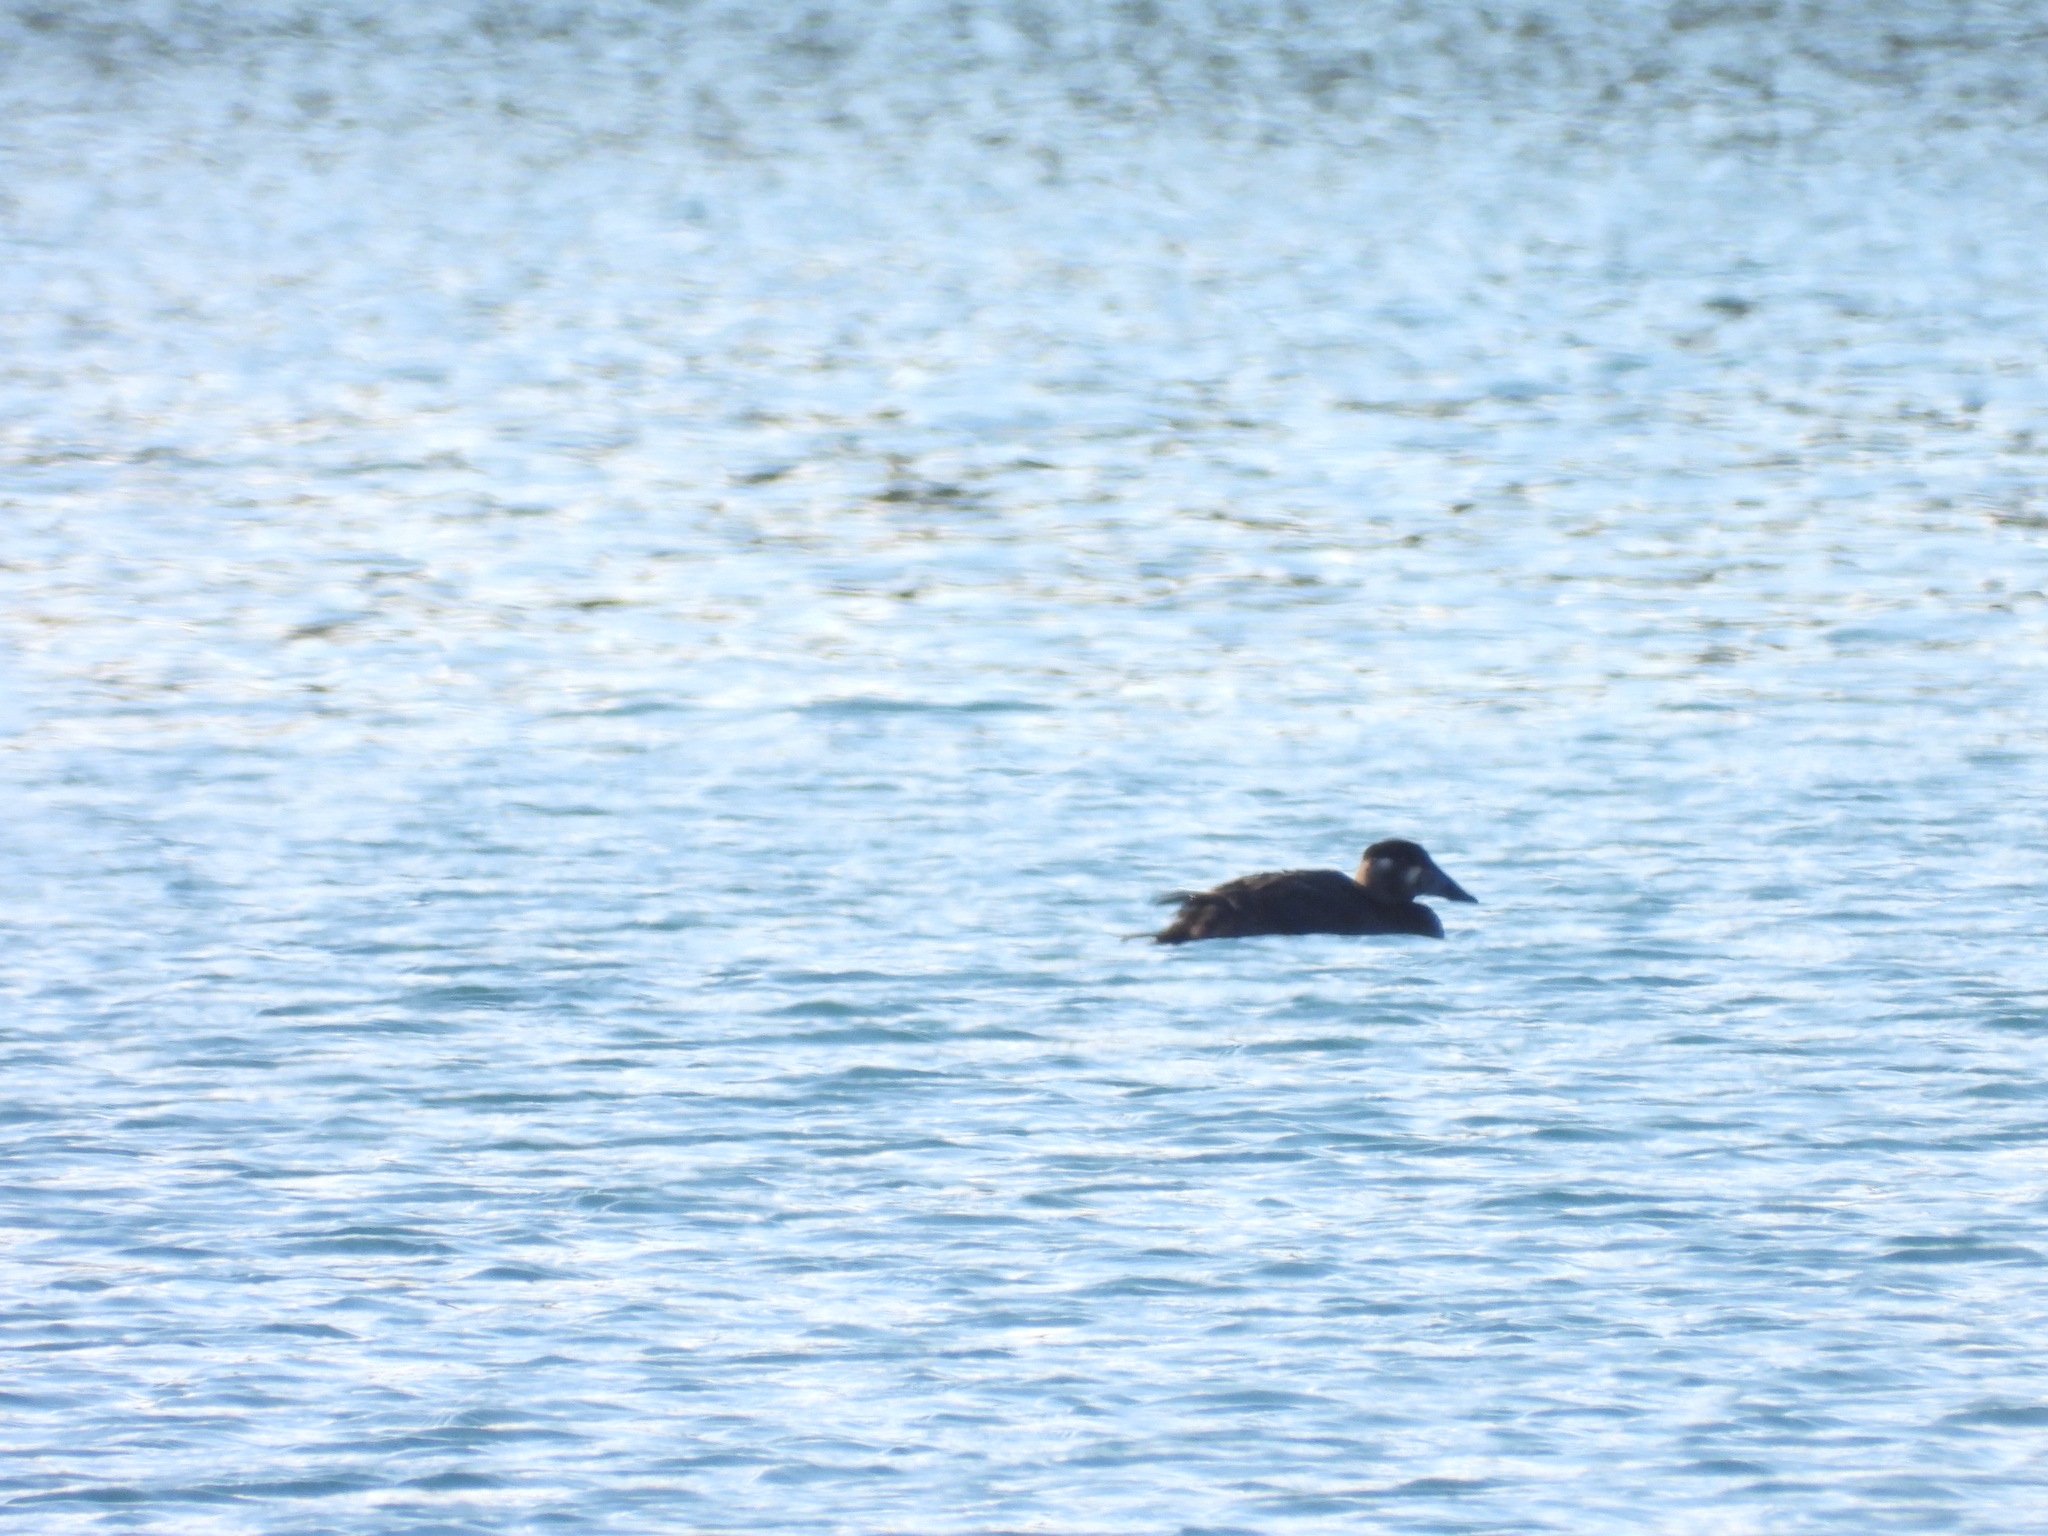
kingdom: Animalia
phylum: Chordata
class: Aves
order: Anseriformes
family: Anatidae
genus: Melanitta
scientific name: Melanitta perspicillata
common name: Surf scoter
